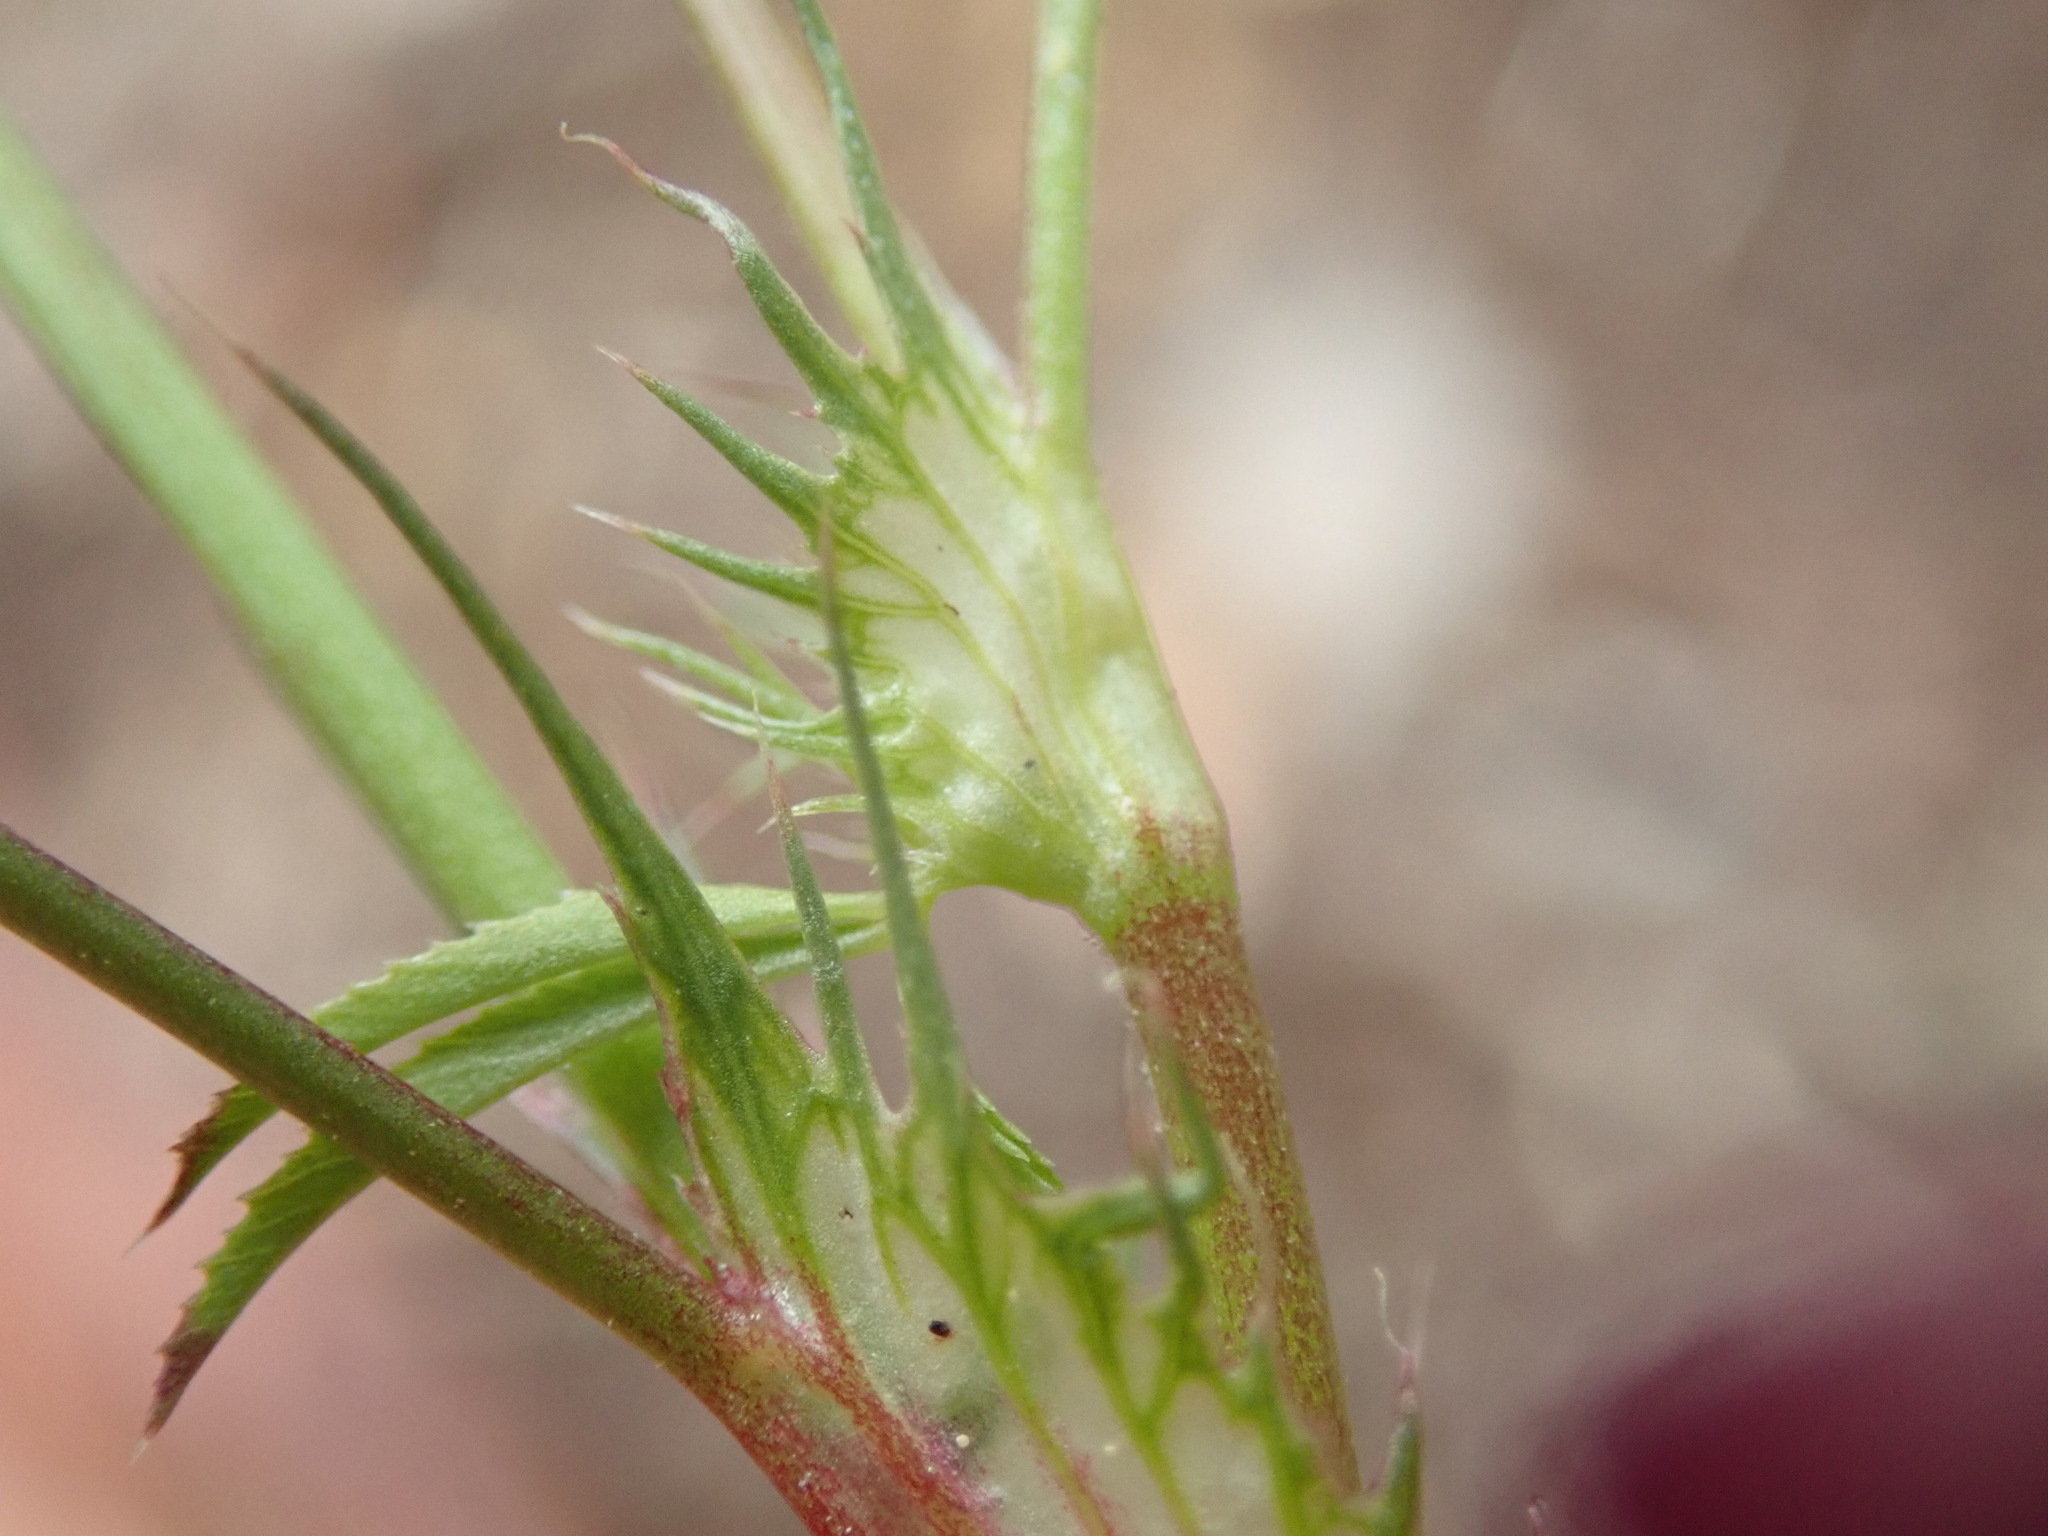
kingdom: Plantae
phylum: Tracheophyta
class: Magnoliopsida
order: Fabales
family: Fabaceae
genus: Trifolium
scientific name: Trifolium willdenovii
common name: Tomcat clover
